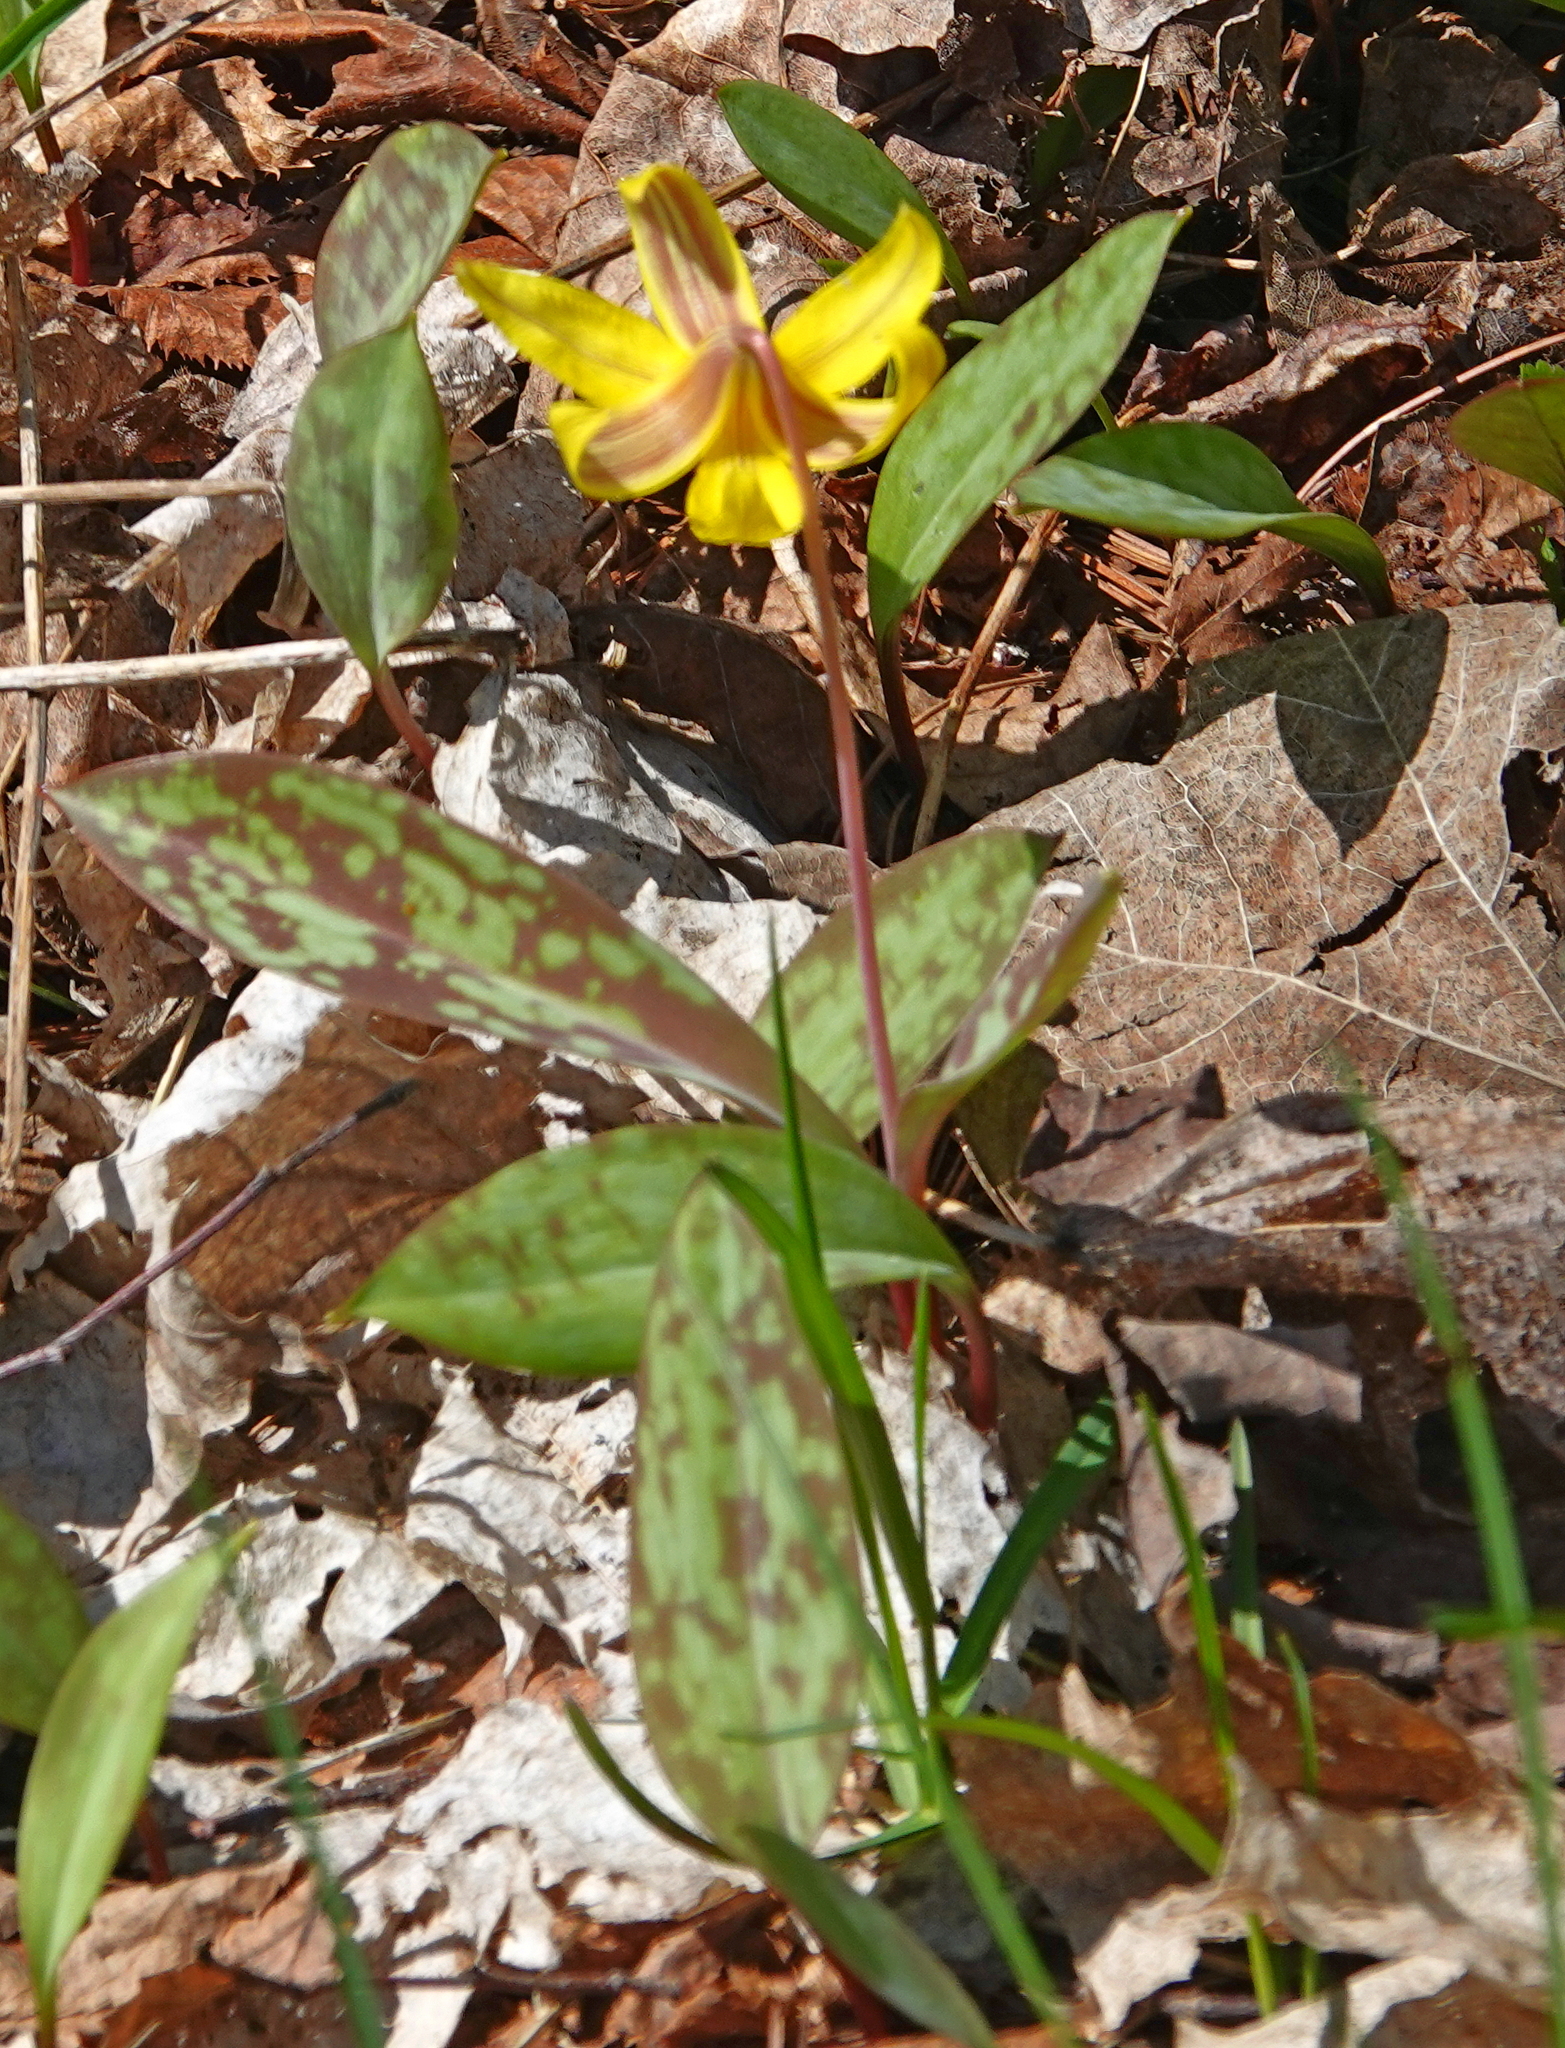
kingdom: Plantae
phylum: Tracheophyta
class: Liliopsida
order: Liliales
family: Liliaceae
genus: Erythronium
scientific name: Erythronium americanum
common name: Yellow adder's-tongue
